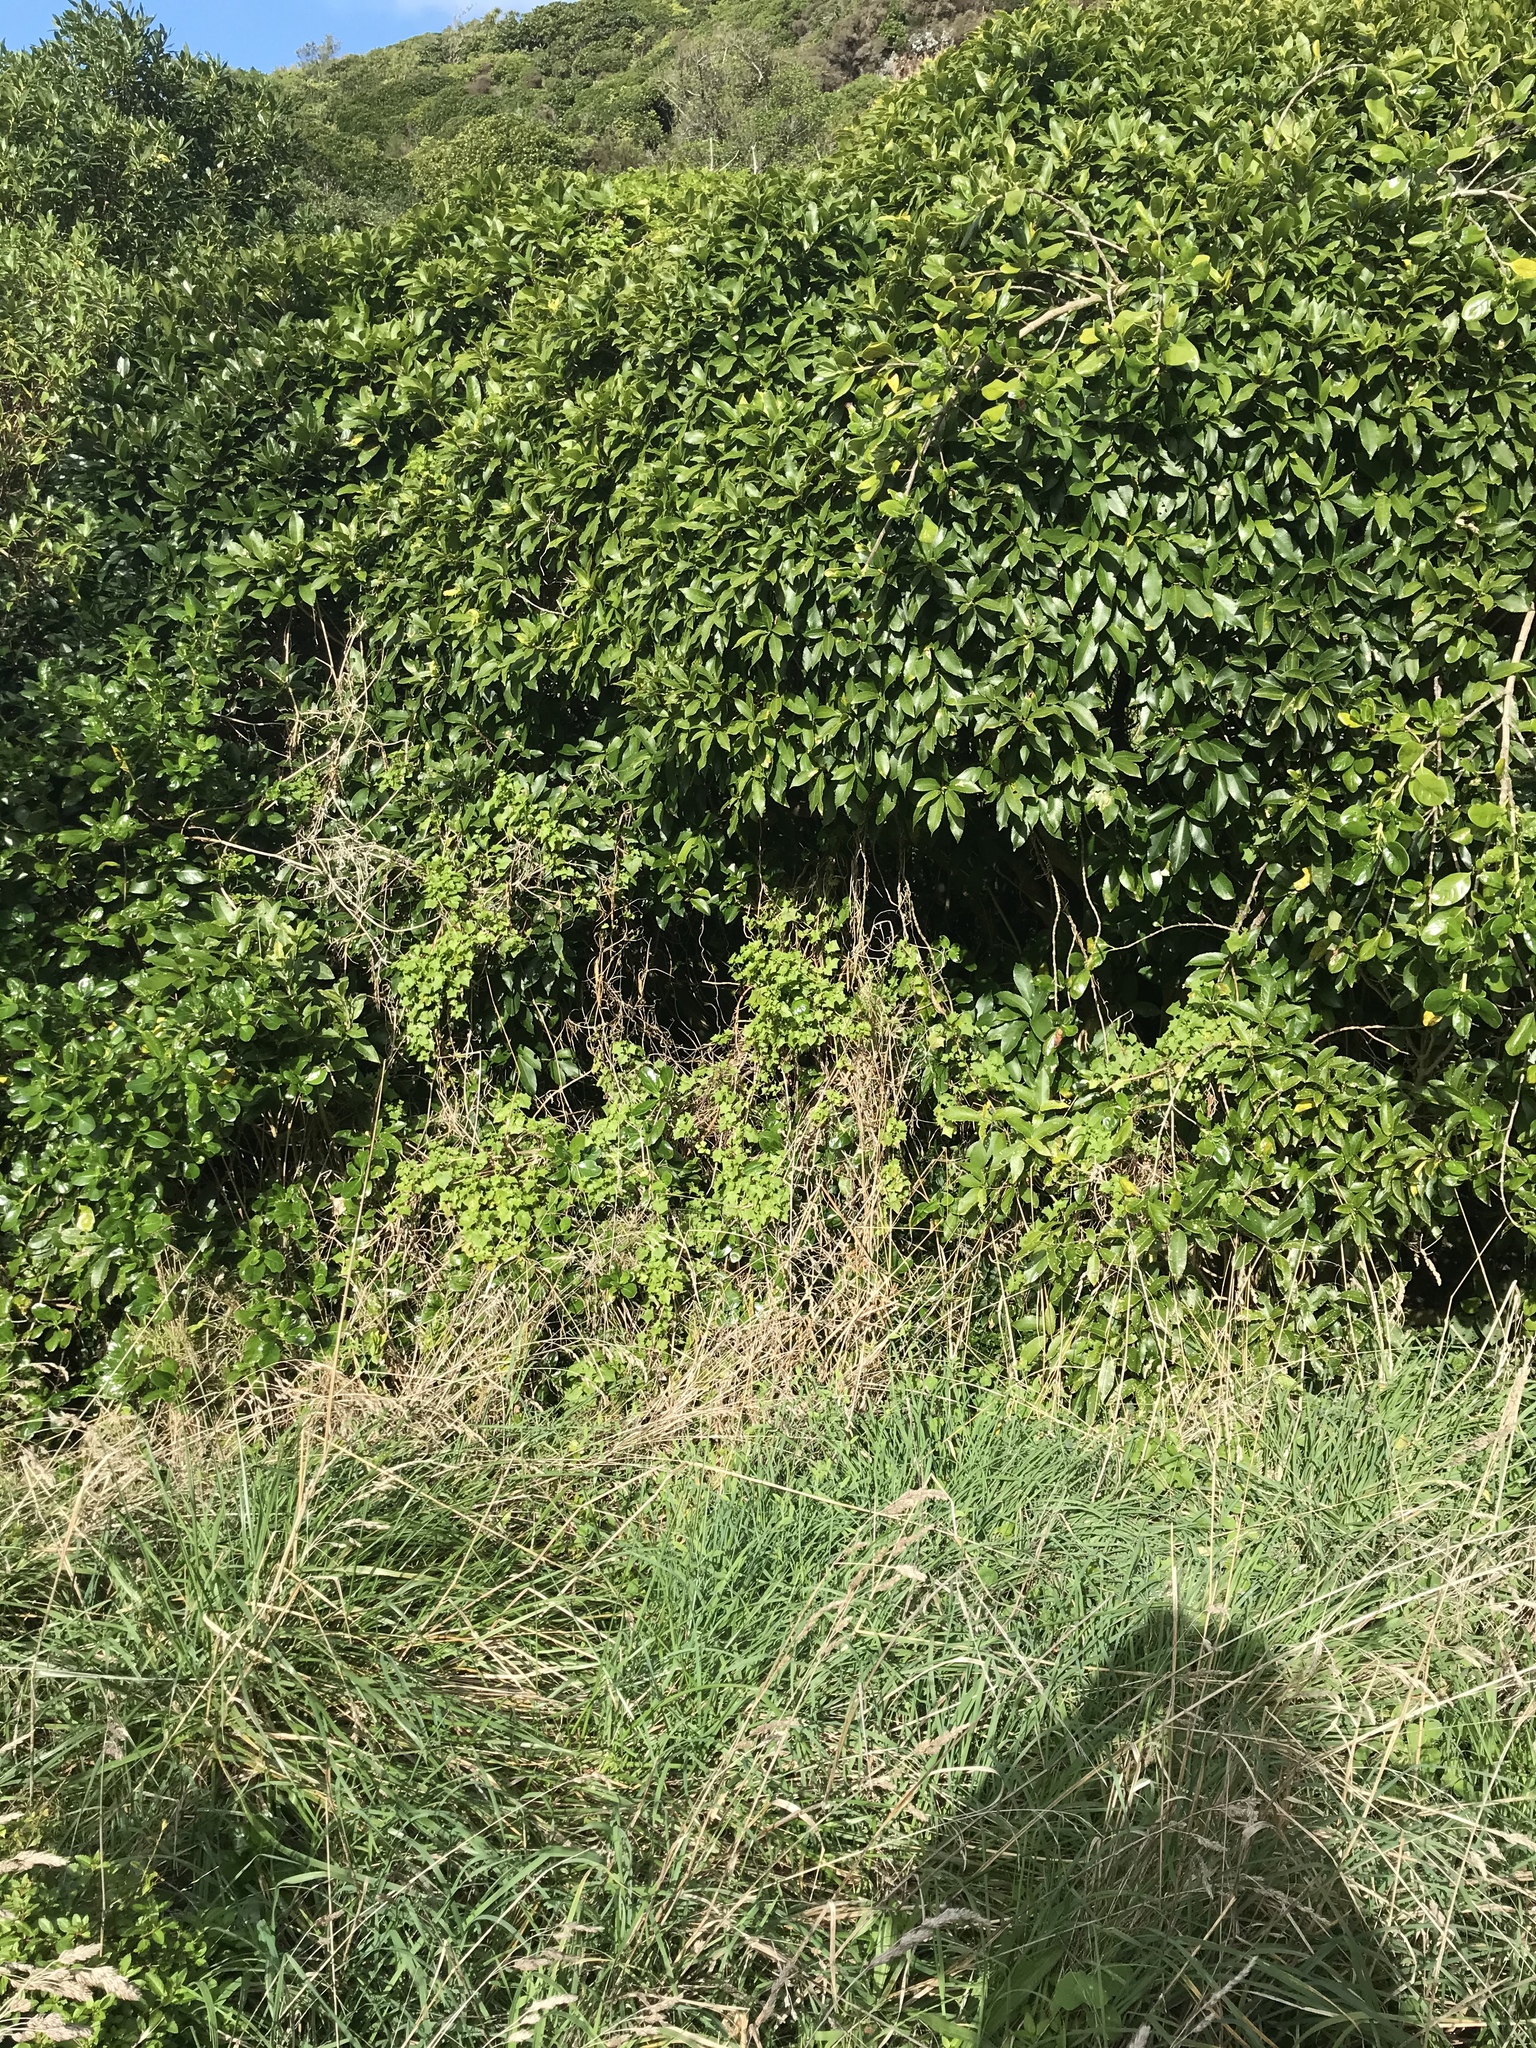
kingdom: Plantae
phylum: Tracheophyta
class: Magnoliopsida
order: Asterales
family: Asteraceae
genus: Delairea
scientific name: Delairea odorata
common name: Cape-ivy
